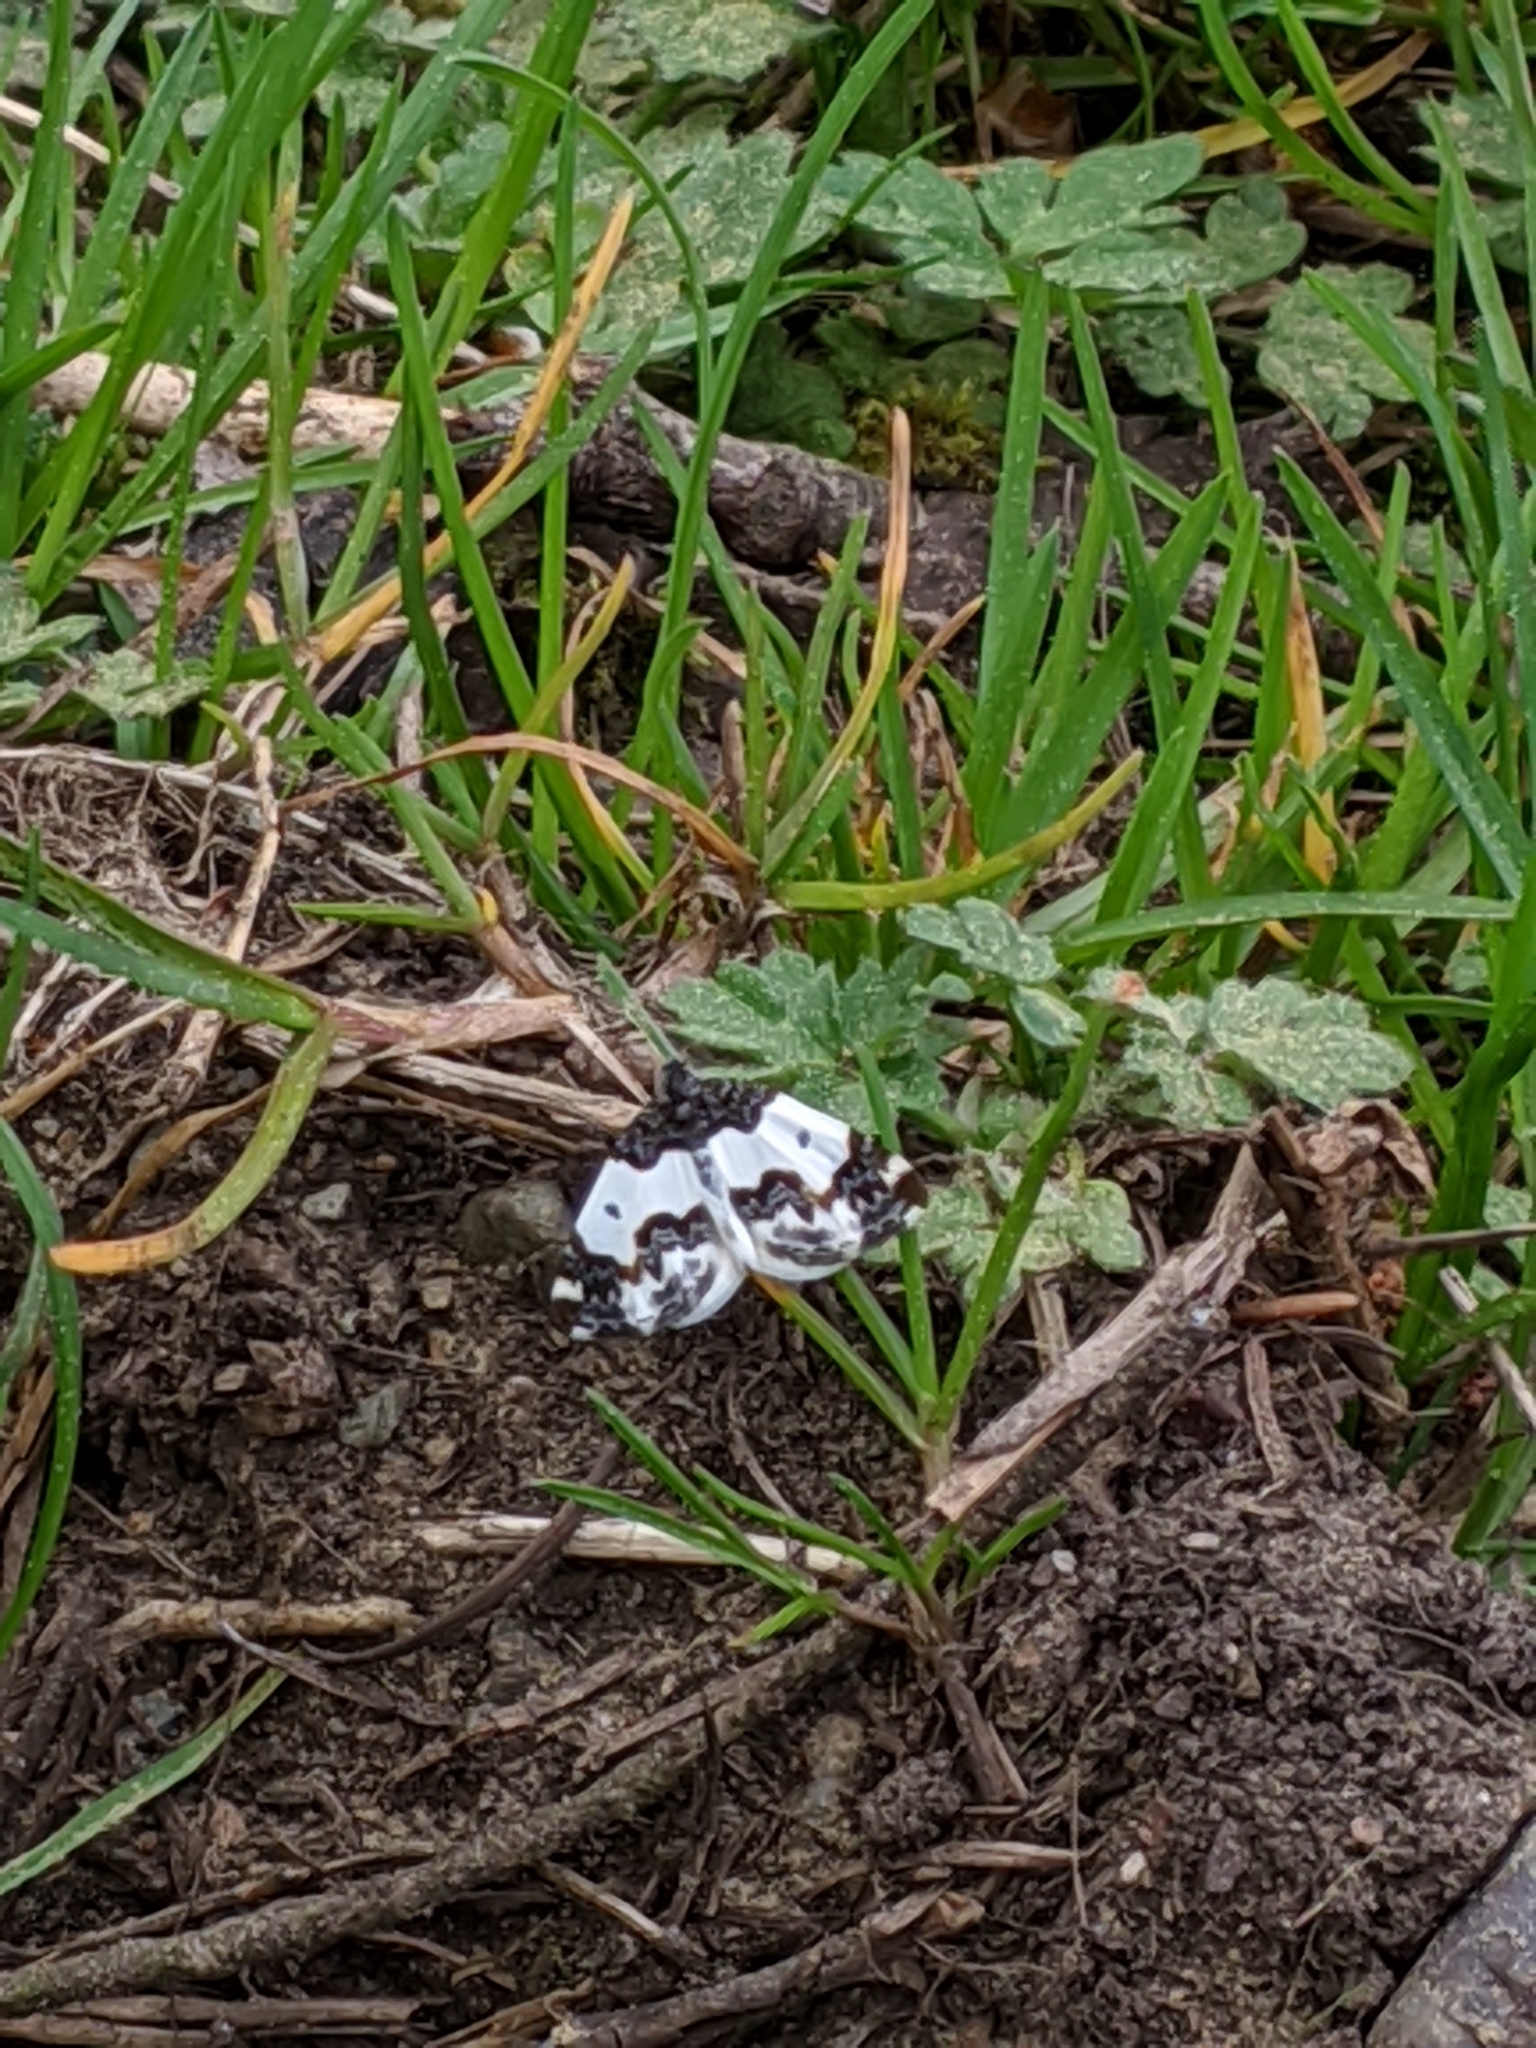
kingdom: Animalia
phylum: Arthropoda
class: Insecta
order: Lepidoptera
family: Geometridae
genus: Mesoleuca
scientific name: Mesoleuca gratulata
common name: Half-white carpet moth
